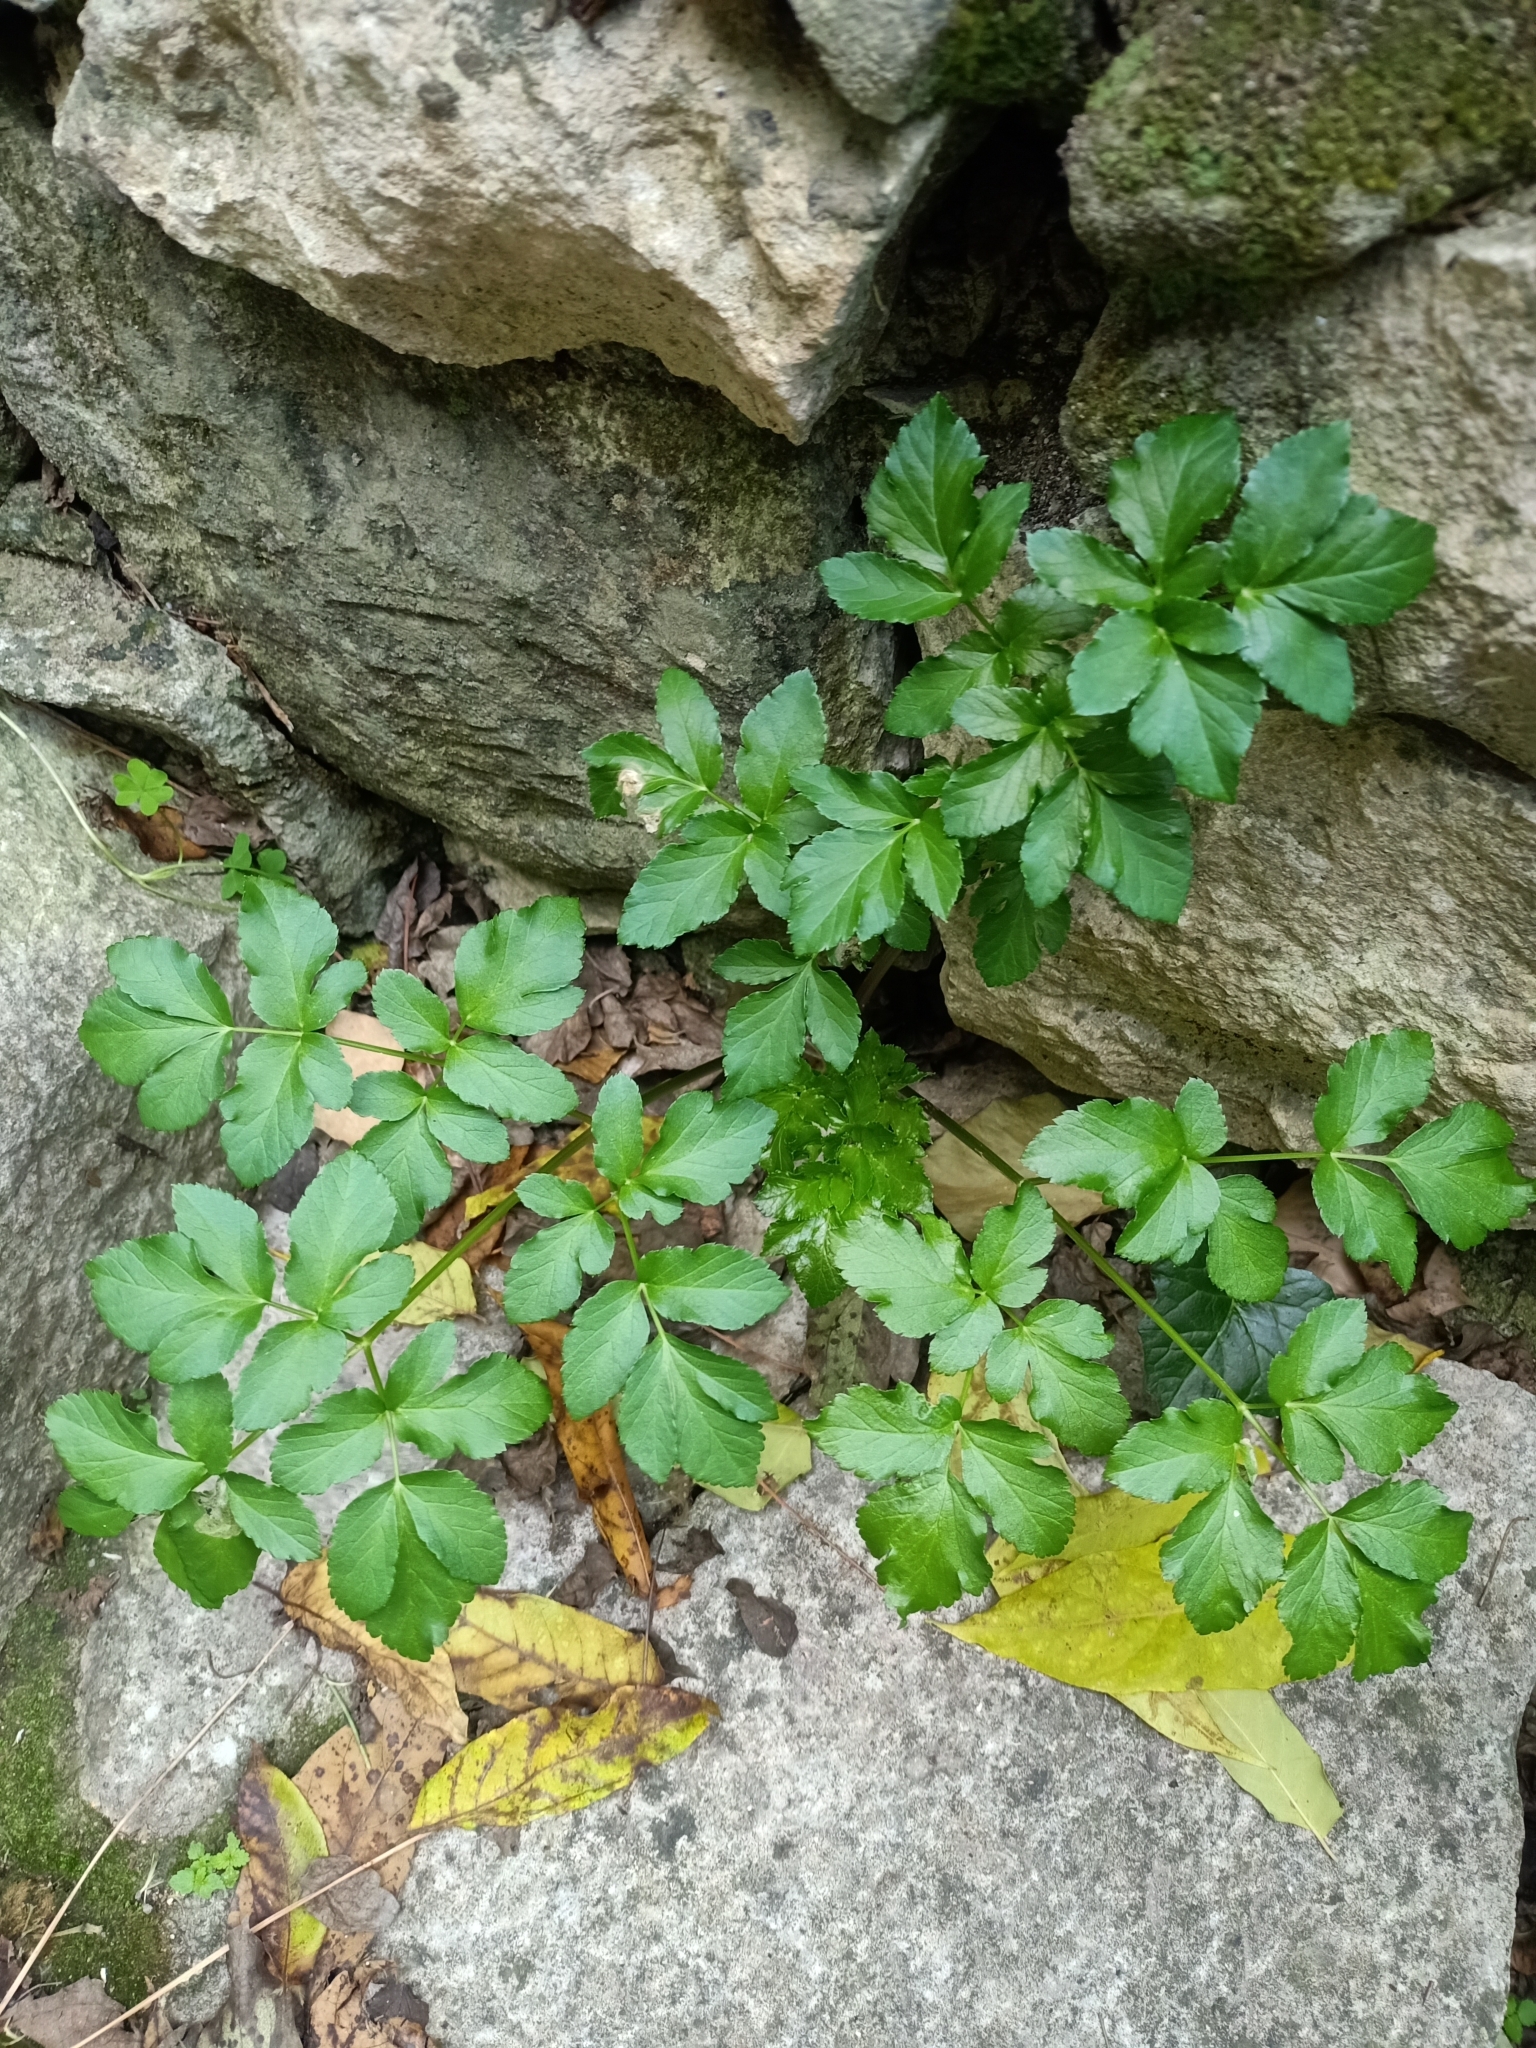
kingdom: Plantae
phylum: Tracheophyta
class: Magnoliopsida
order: Apiales
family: Apiaceae
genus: Smyrnium
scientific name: Smyrnium olusatrum
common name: Alexanders
